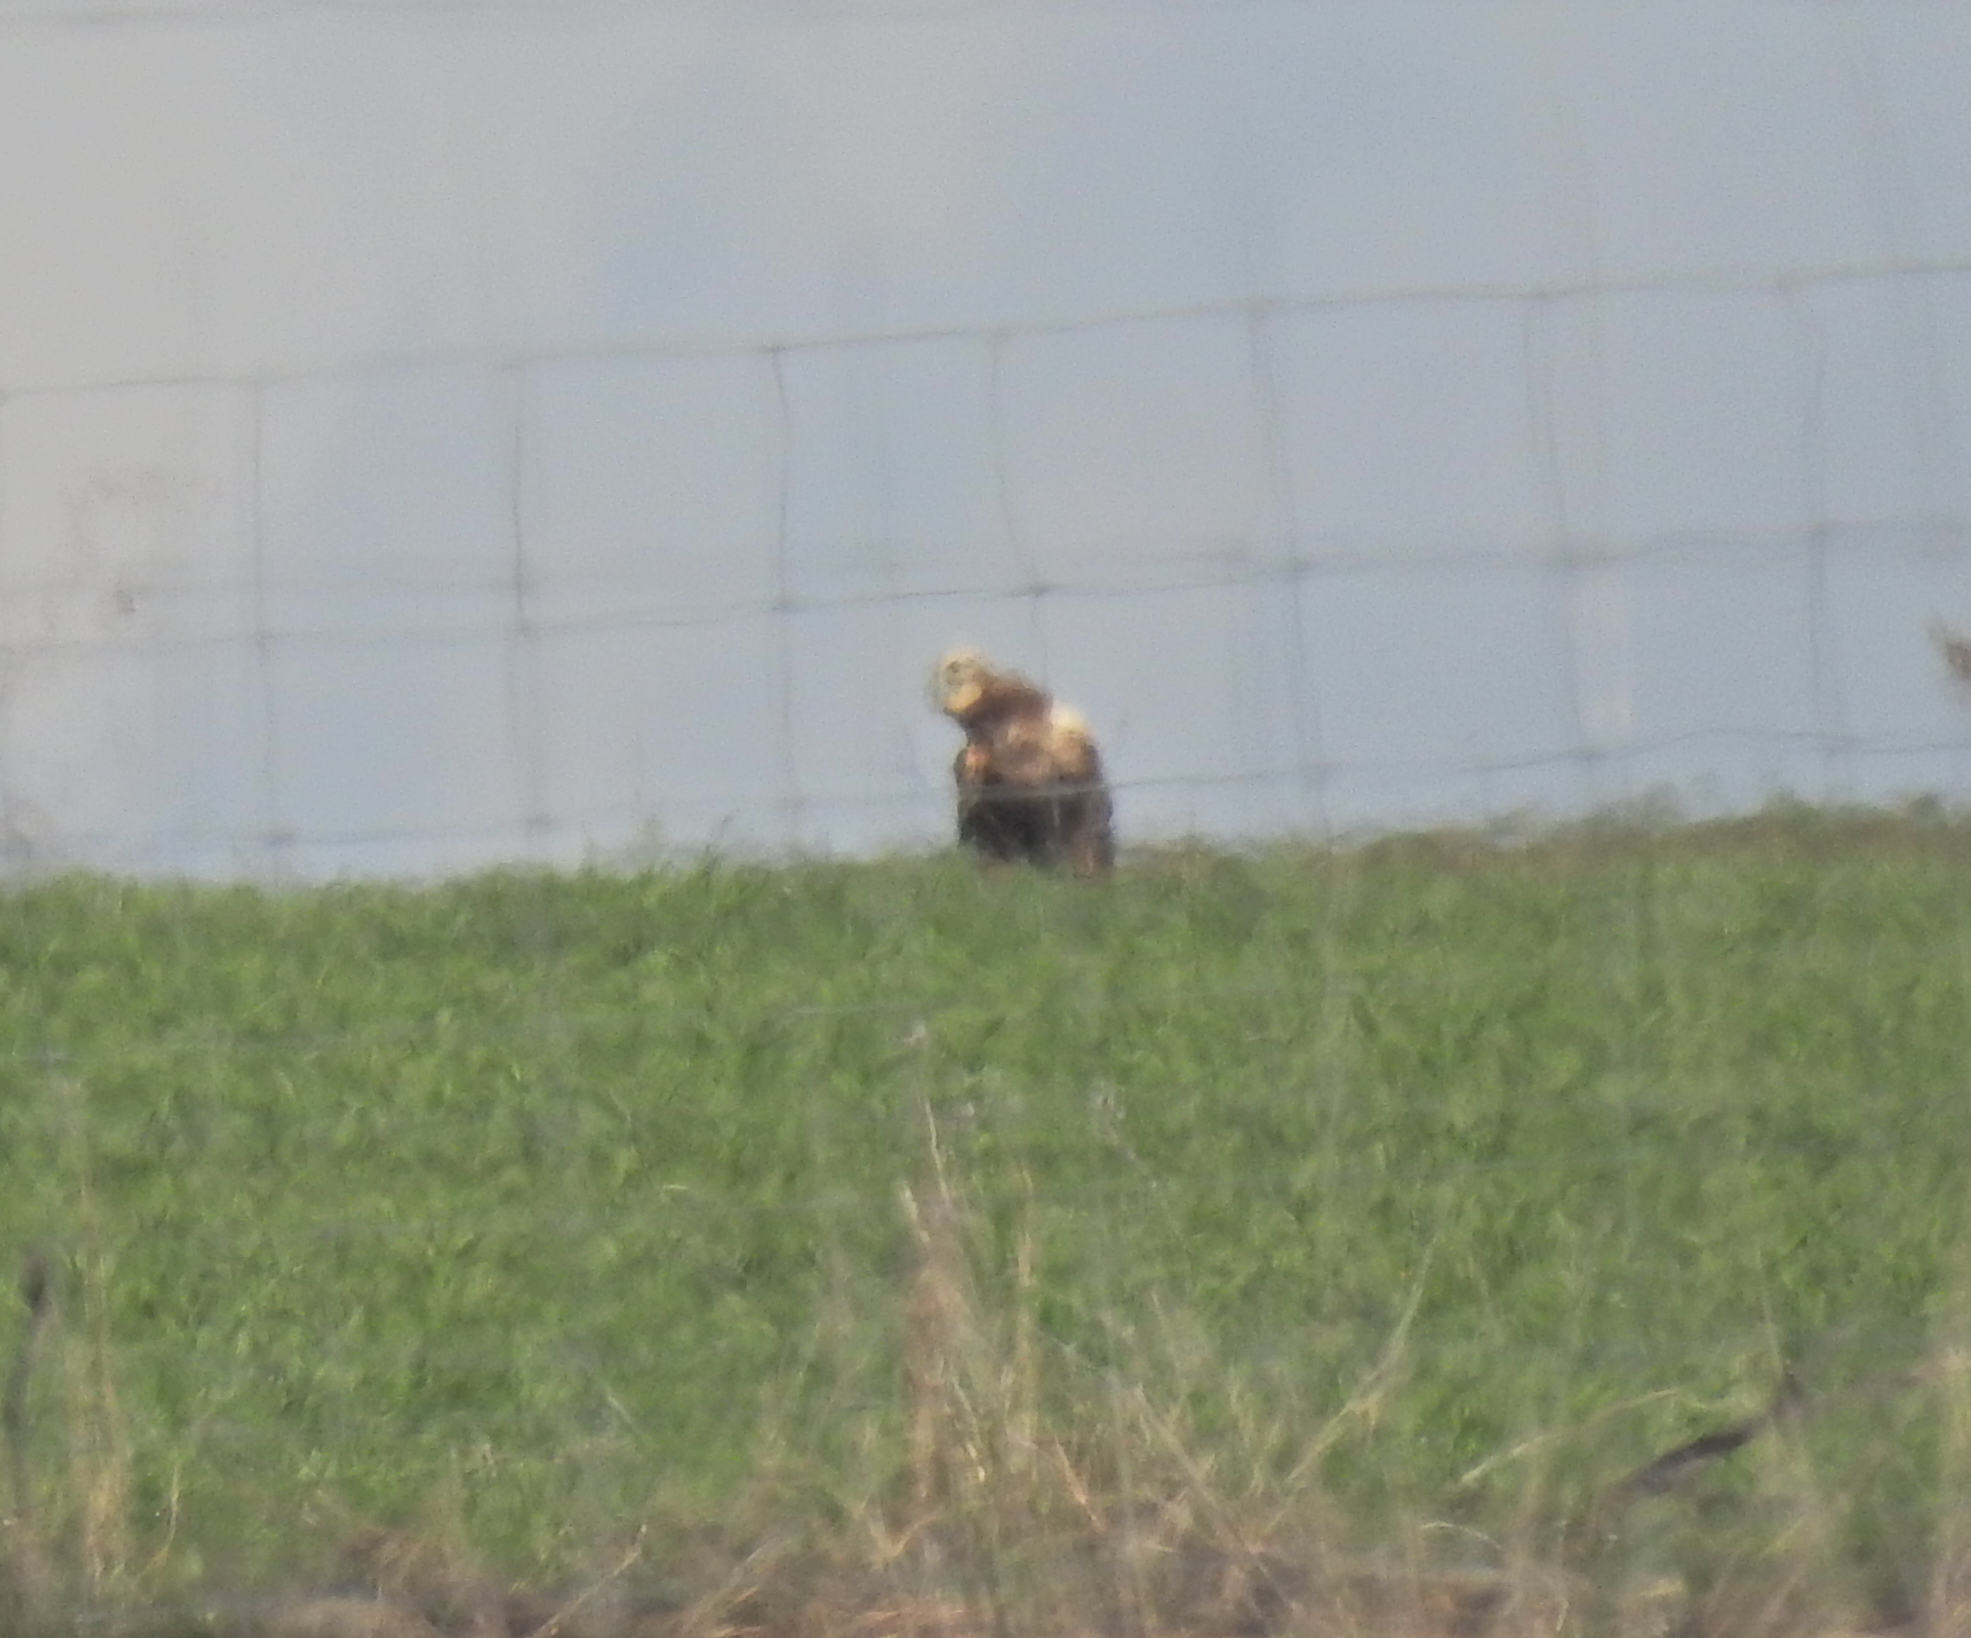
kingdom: Animalia
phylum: Chordata
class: Aves
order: Accipitriformes
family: Accipitridae
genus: Circus
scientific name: Circus aeruginosus
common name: Western marsh harrier
